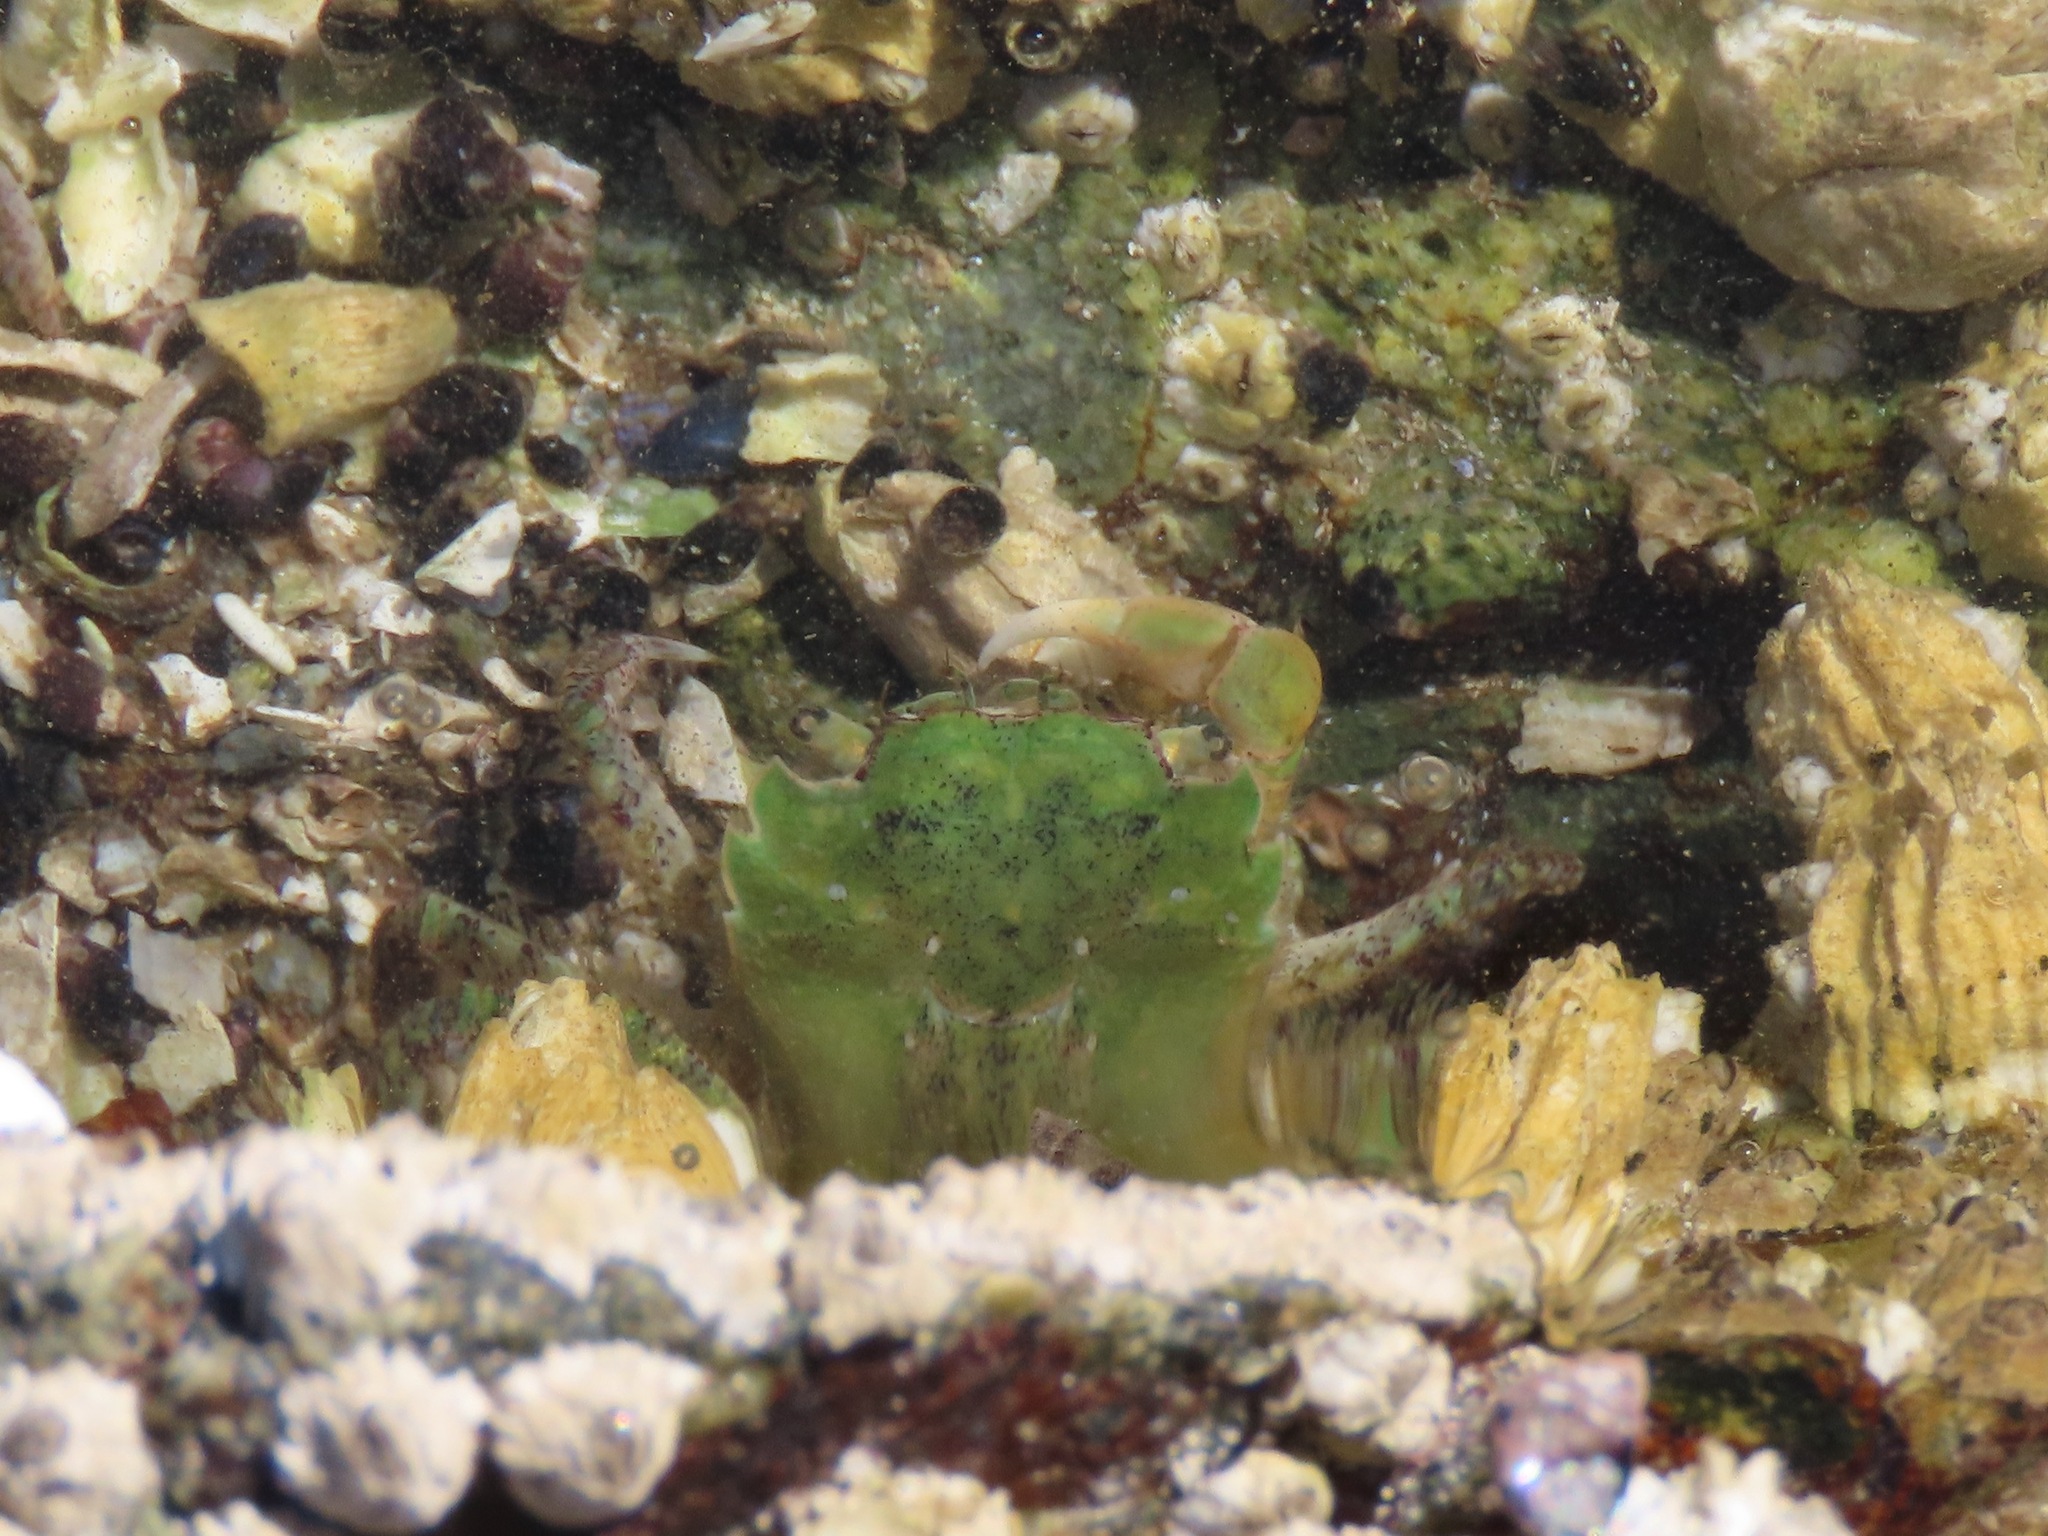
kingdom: Animalia
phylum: Arthropoda
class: Malacostraca
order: Decapoda
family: Varunidae
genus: Hemigrapsus
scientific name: Hemigrapsus oregonensis
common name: Yellow shore crab
